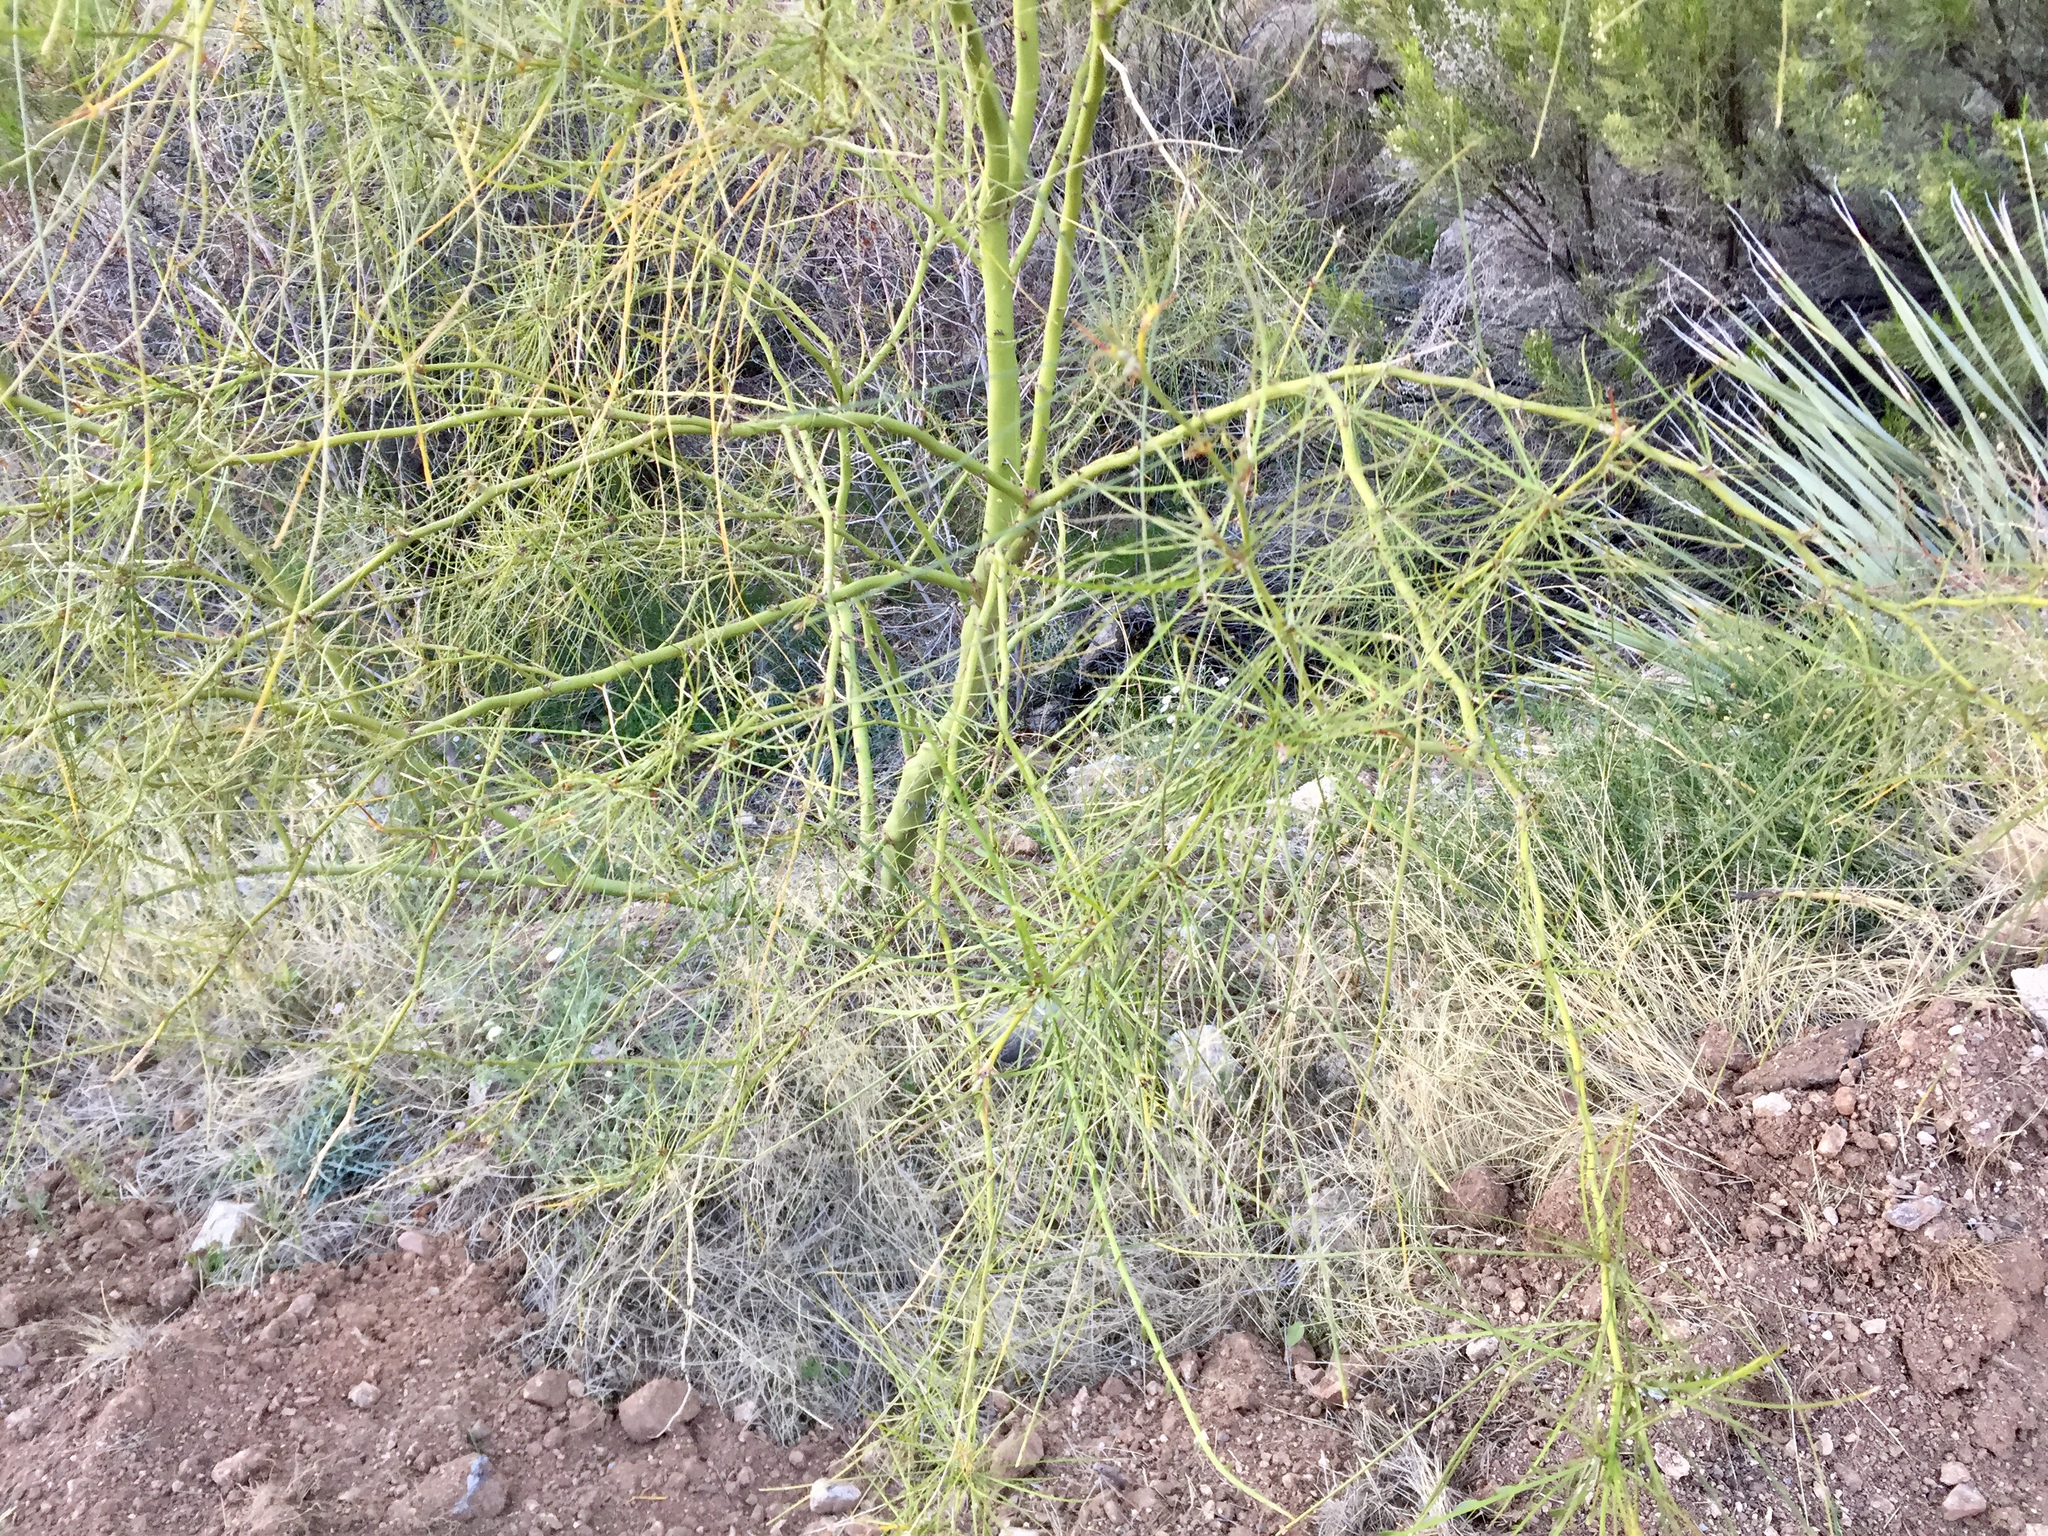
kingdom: Plantae
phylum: Tracheophyta
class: Magnoliopsida
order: Fabales
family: Fabaceae
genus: Parkinsonia
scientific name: Parkinsonia aculeata
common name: Jerusalem thorn
